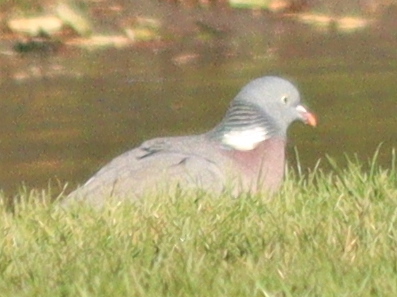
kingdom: Animalia
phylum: Chordata
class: Aves
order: Columbiformes
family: Columbidae
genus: Columba
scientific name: Columba palumbus
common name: Common wood pigeon
